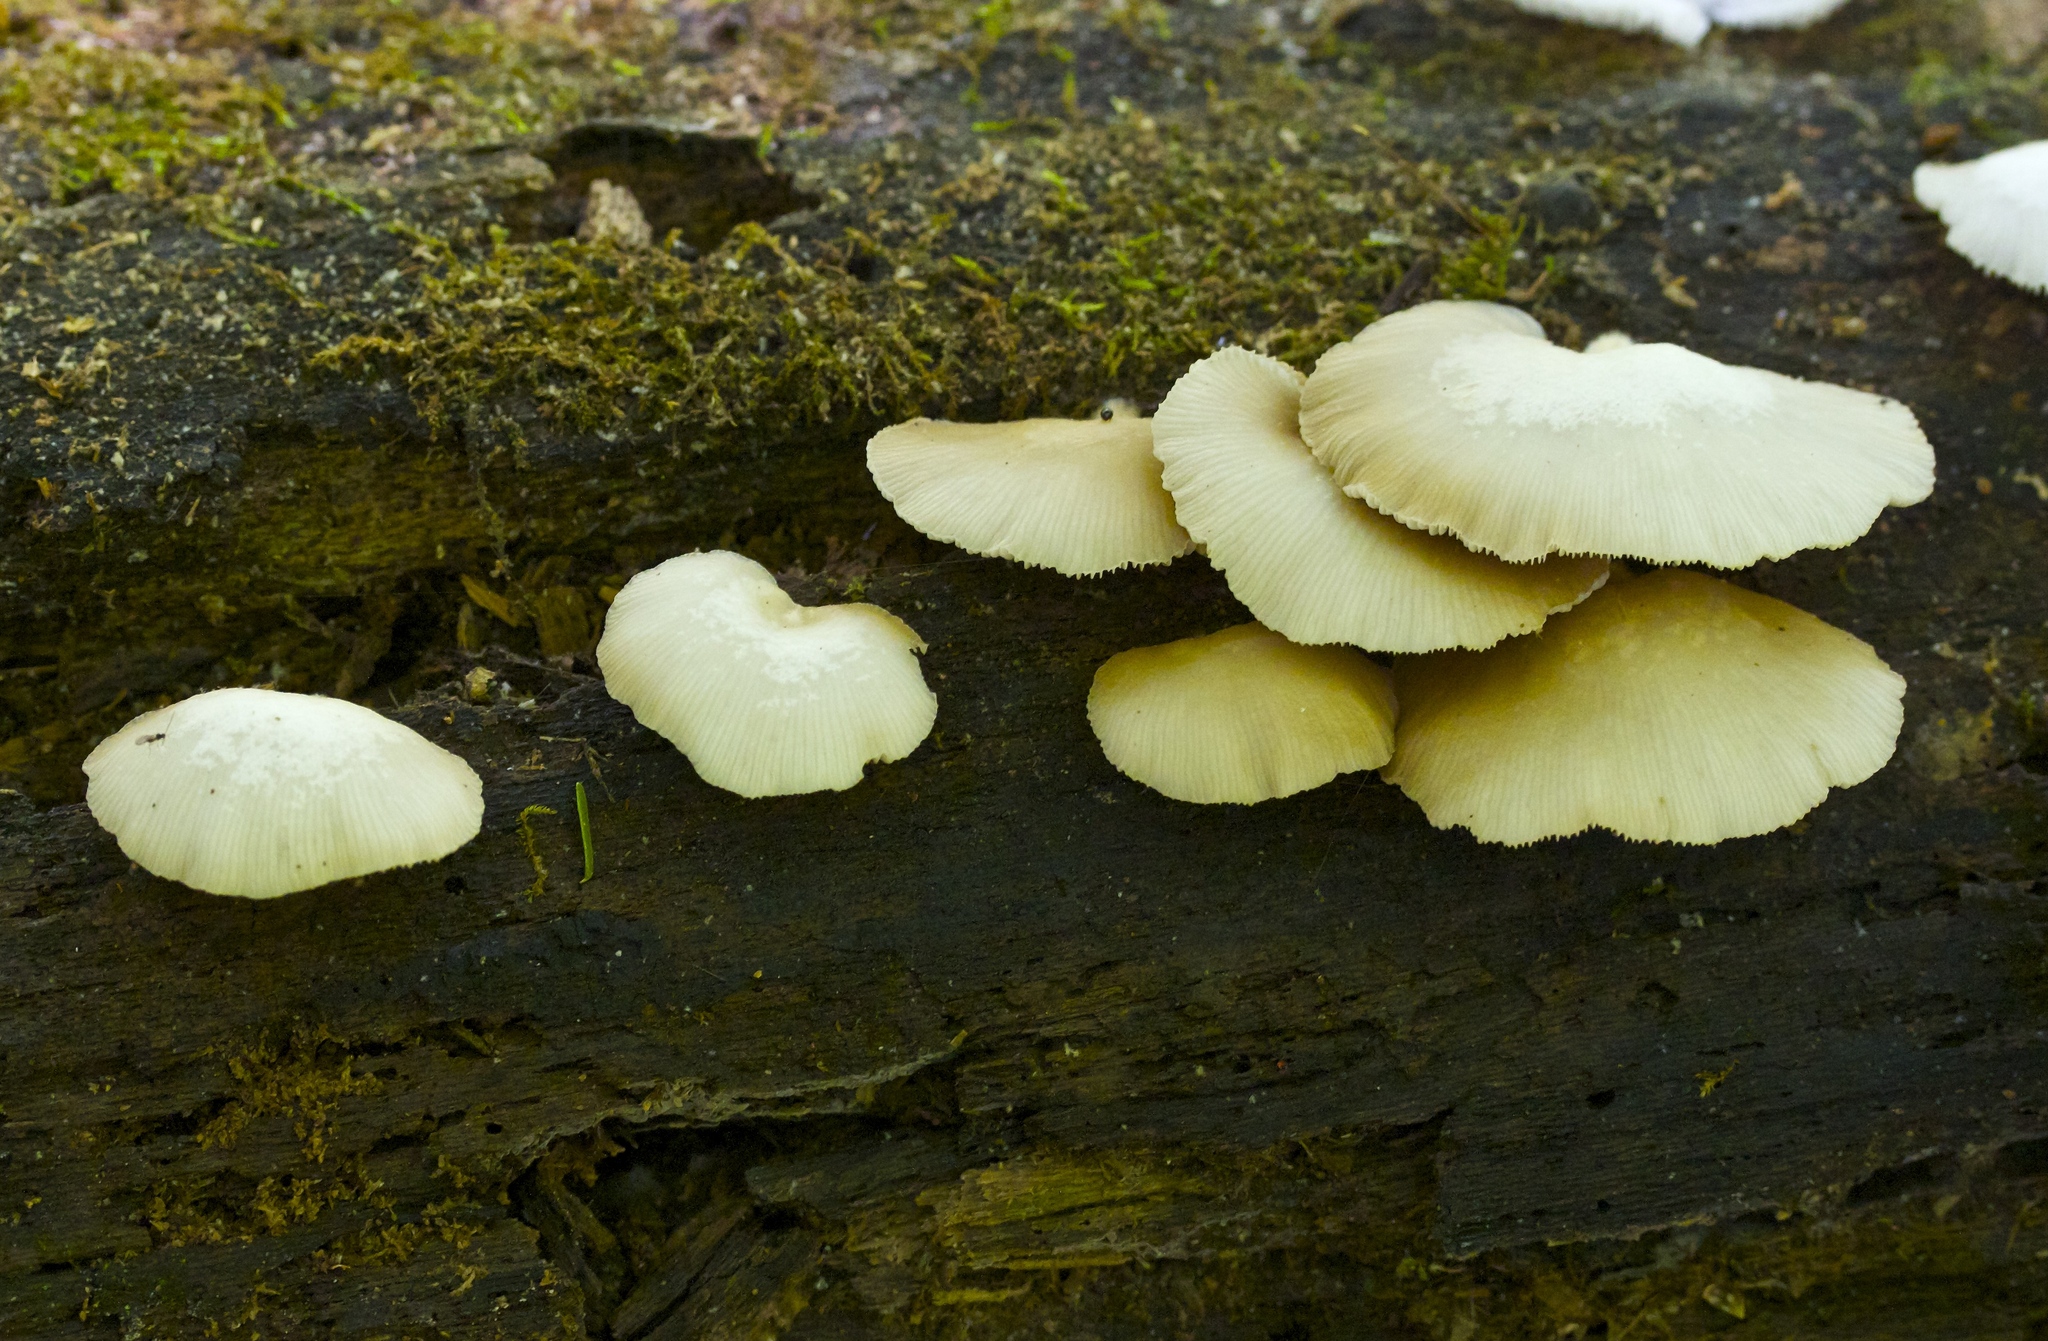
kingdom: Fungi
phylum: Basidiomycota
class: Agaricomycetes
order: Agaricales
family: Crepidotaceae
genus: Crepidotus
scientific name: Crepidotus applanatus
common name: Flat crep
